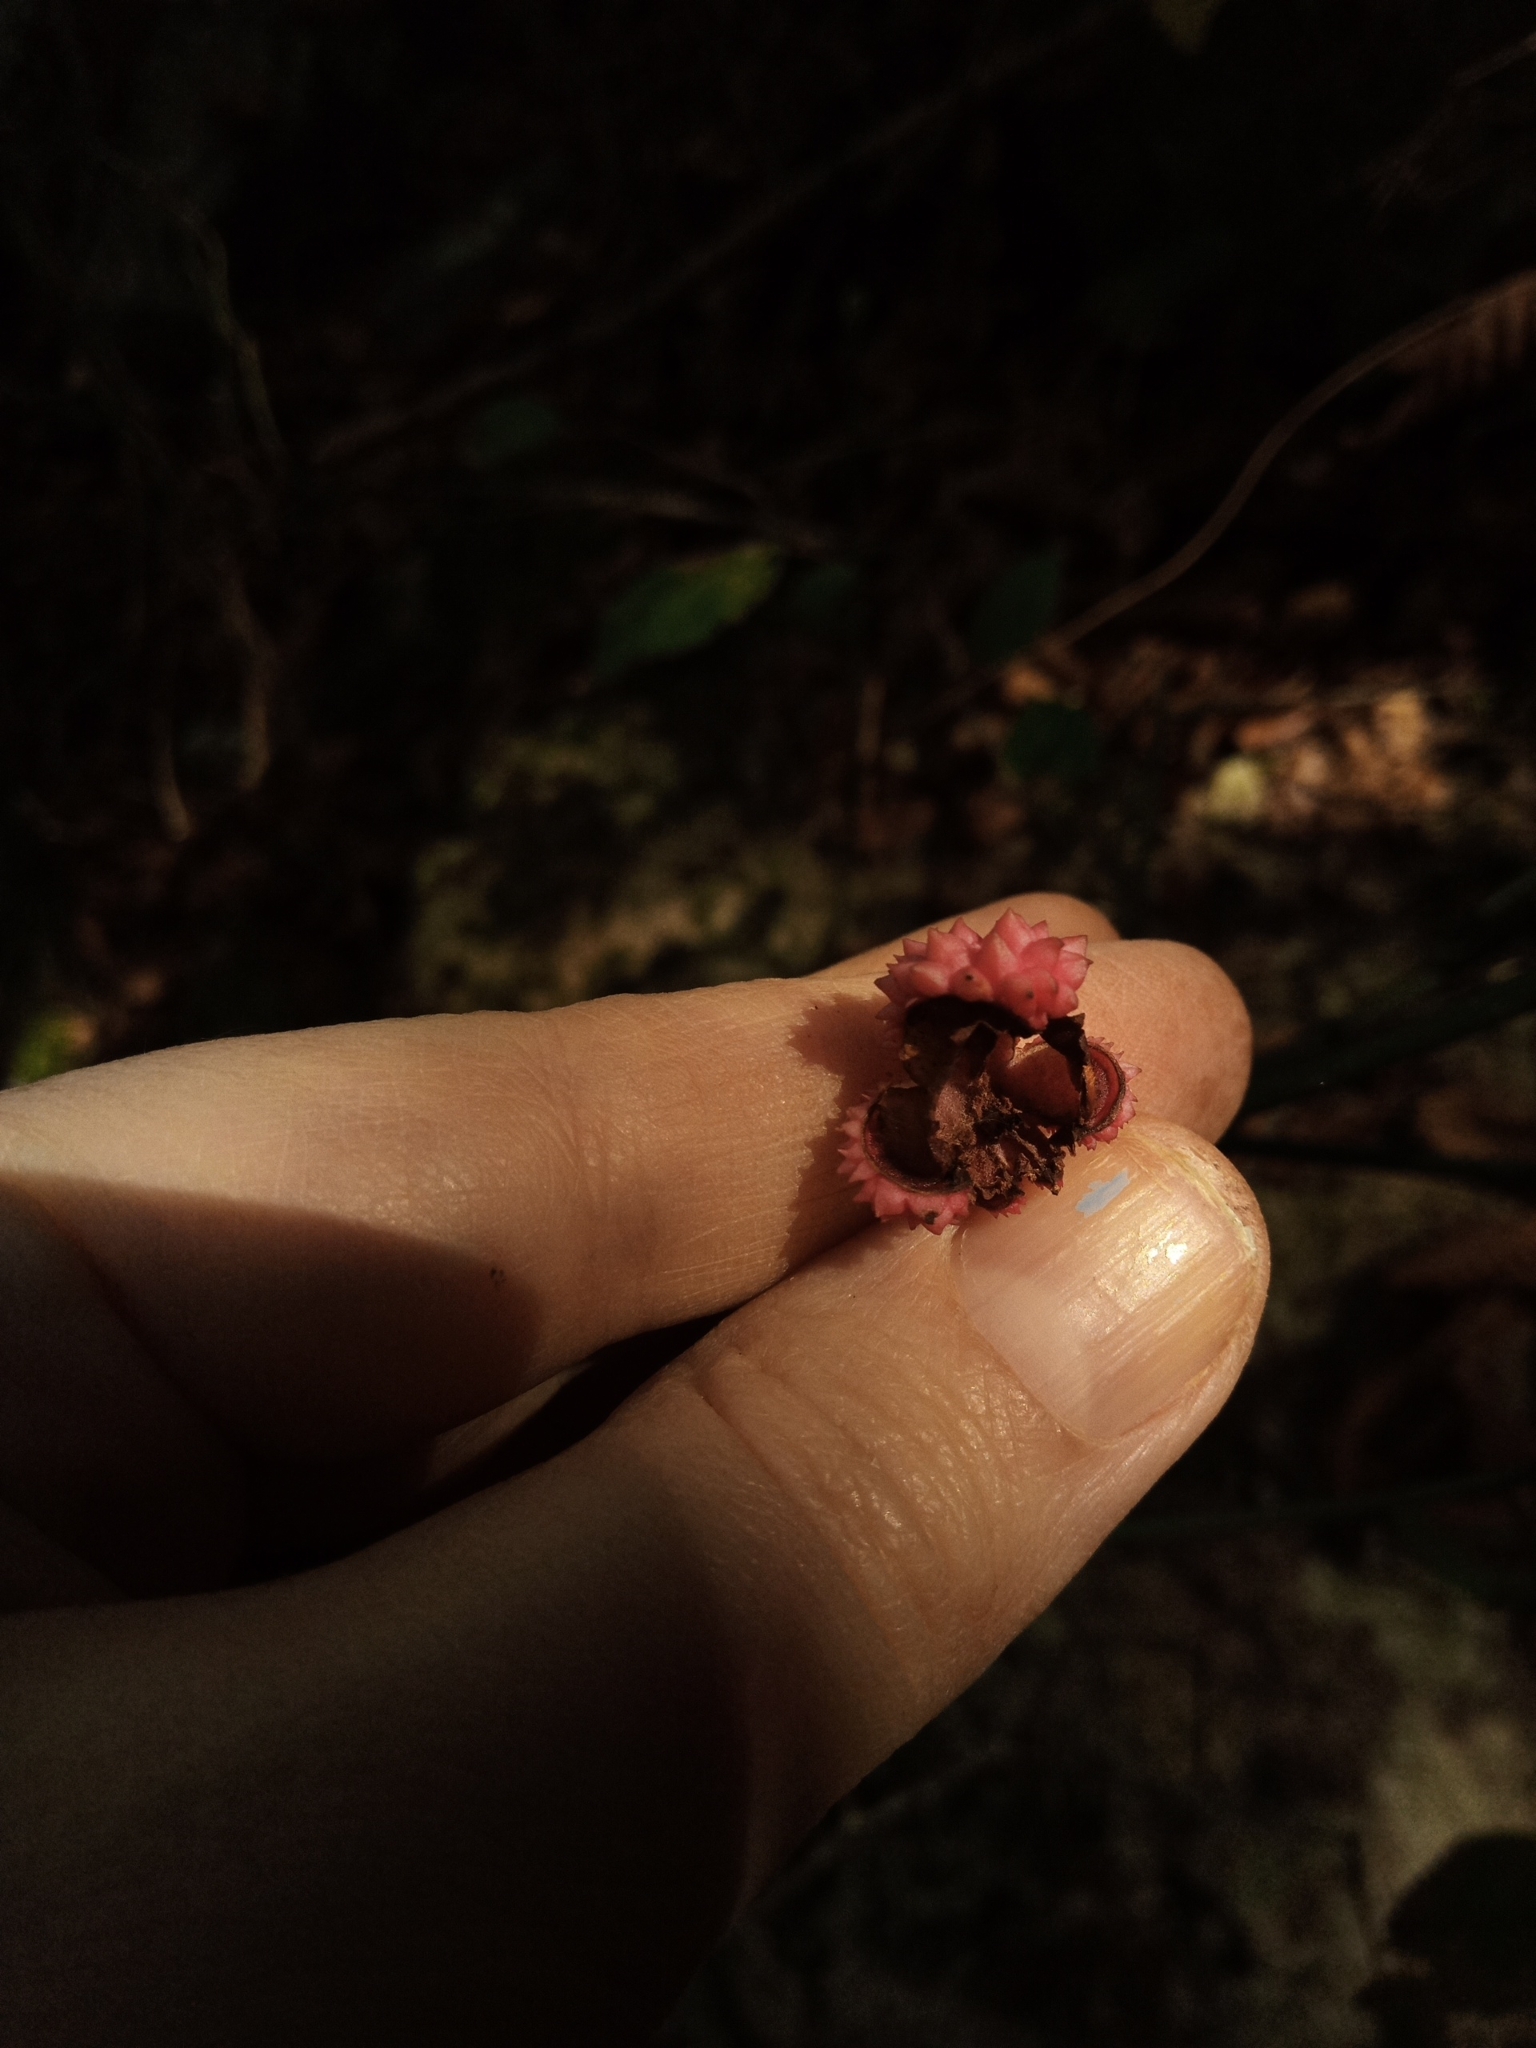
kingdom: Plantae
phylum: Tracheophyta
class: Magnoliopsida
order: Celastrales
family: Celastraceae
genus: Euonymus
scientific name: Euonymus americanus
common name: Bursting-heart
